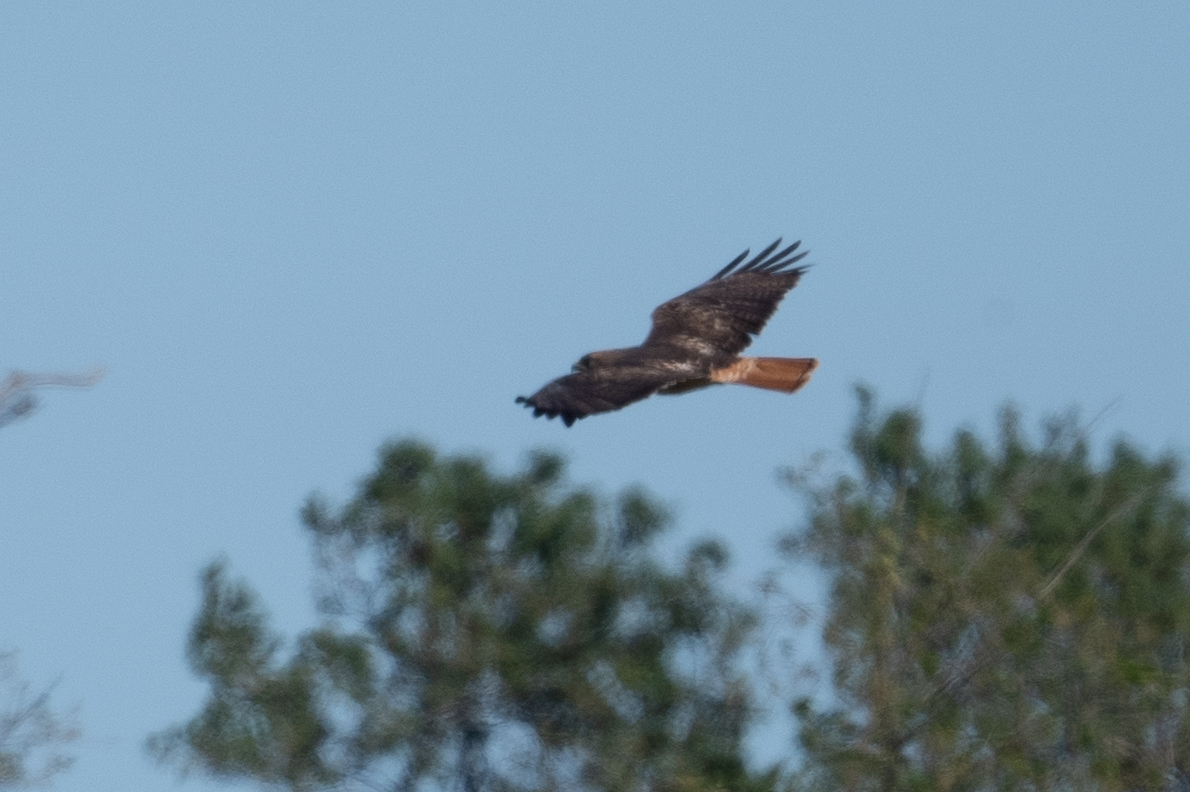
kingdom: Animalia
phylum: Chordata
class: Aves
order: Accipitriformes
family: Accipitridae
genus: Buteo
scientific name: Buteo jamaicensis
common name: Red-tailed hawk
